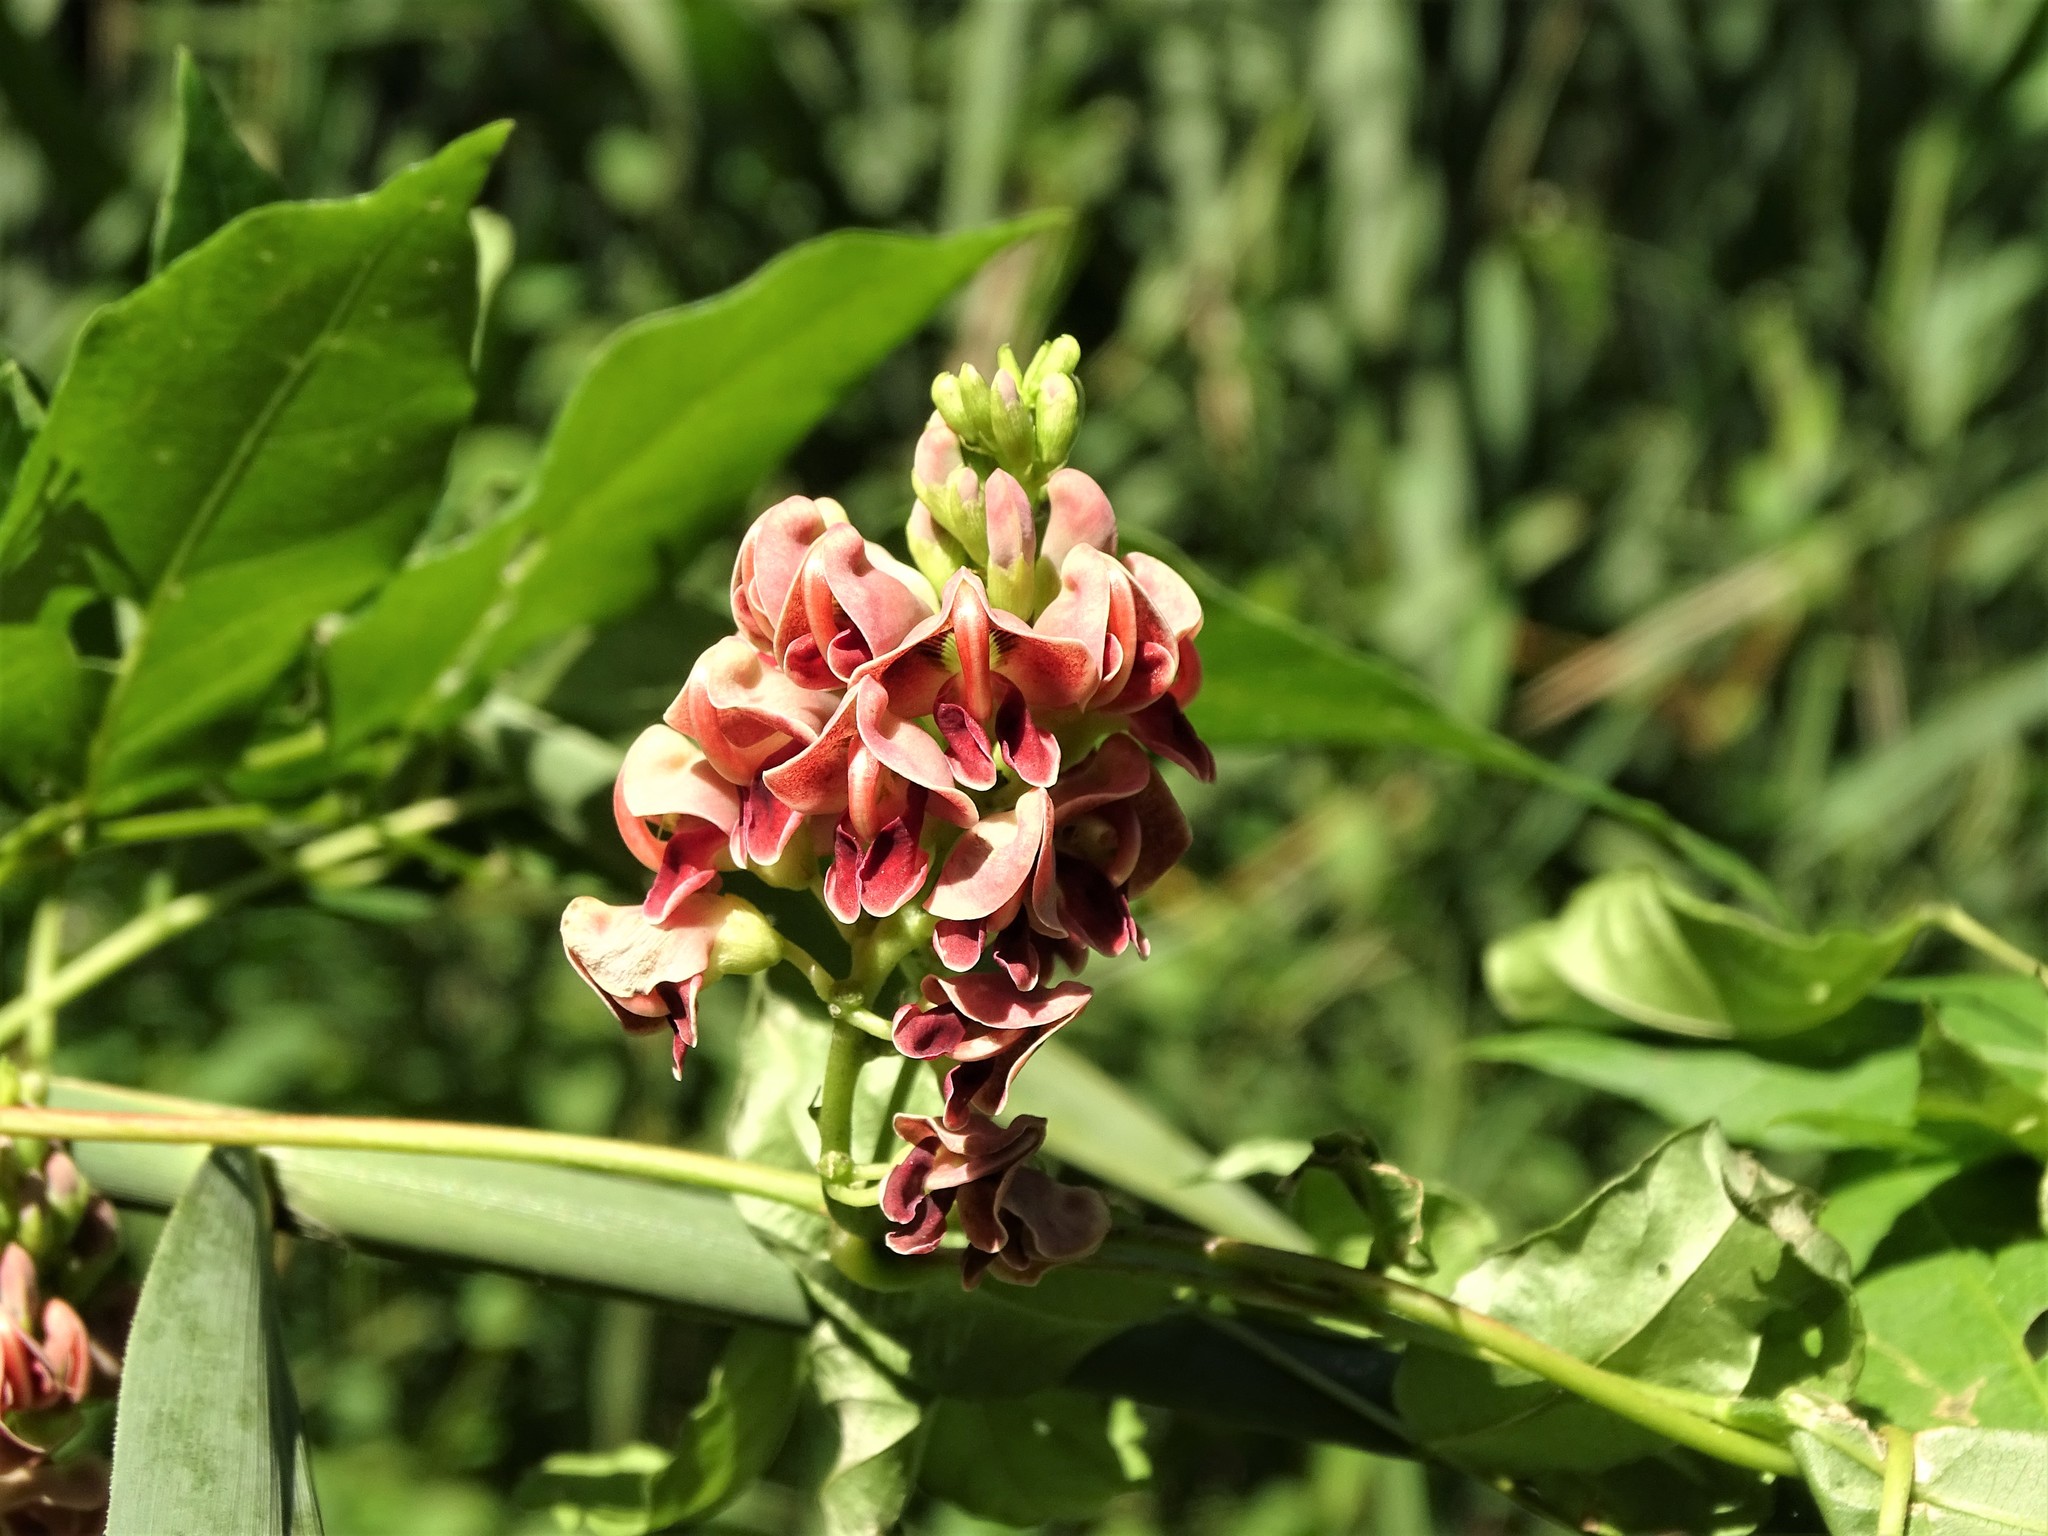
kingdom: Plantae
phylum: Tracheophyta
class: Magnoliopsida
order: Fabales
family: Fabaceae
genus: Apios
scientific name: Apios americana
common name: American potato-bean
